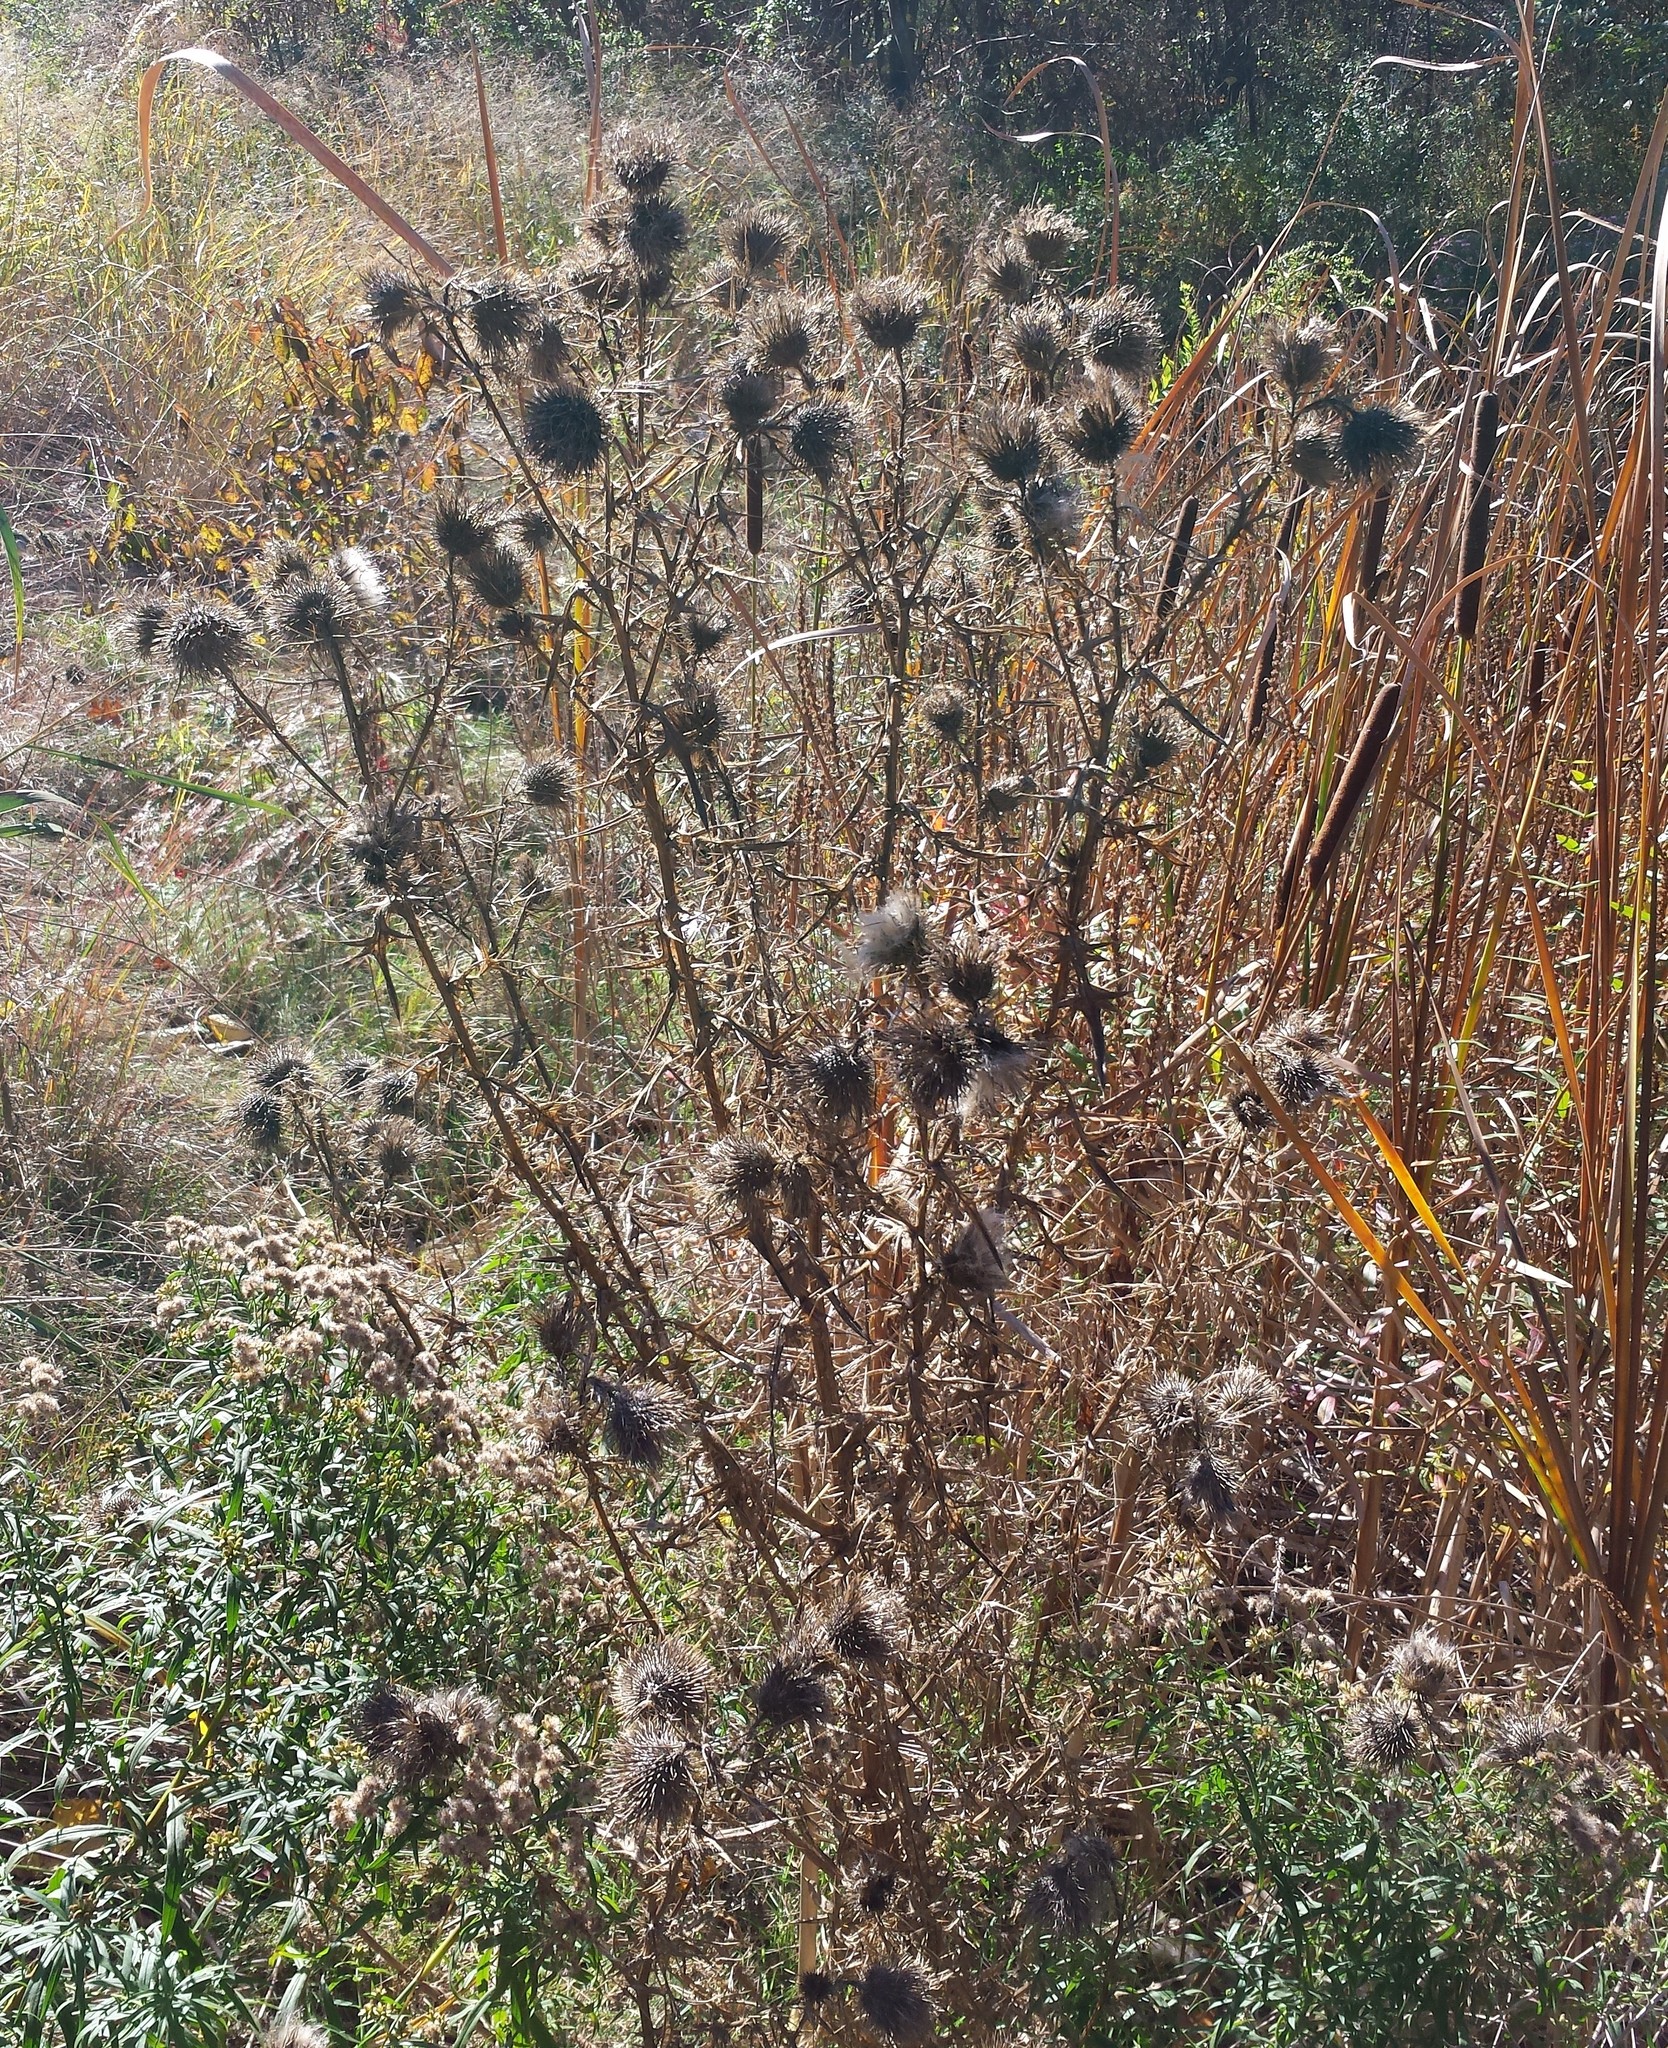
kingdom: Plantae
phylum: Tracheophyta
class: Magnoliopsida
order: Asterales
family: Asteraceae
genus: Cirsium
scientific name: Cirsium vulgare
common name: Bull thistle
